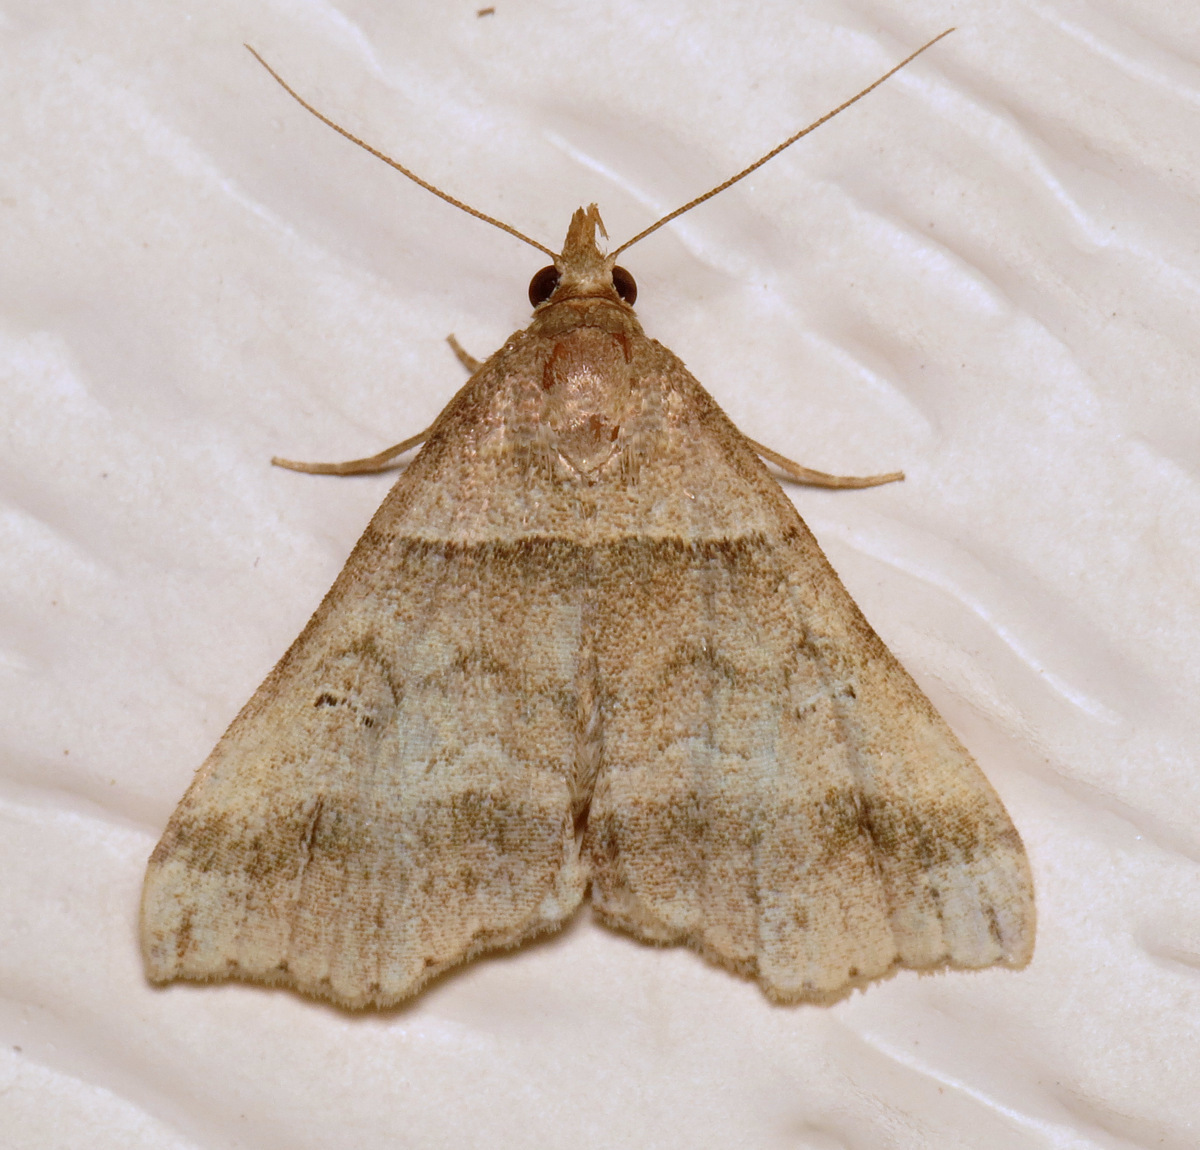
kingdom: Animalia
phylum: Arthropoda
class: Insecta
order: Lepidoptera
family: Erebidae
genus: Phaeolita
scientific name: Phaeolita pyramusalis
